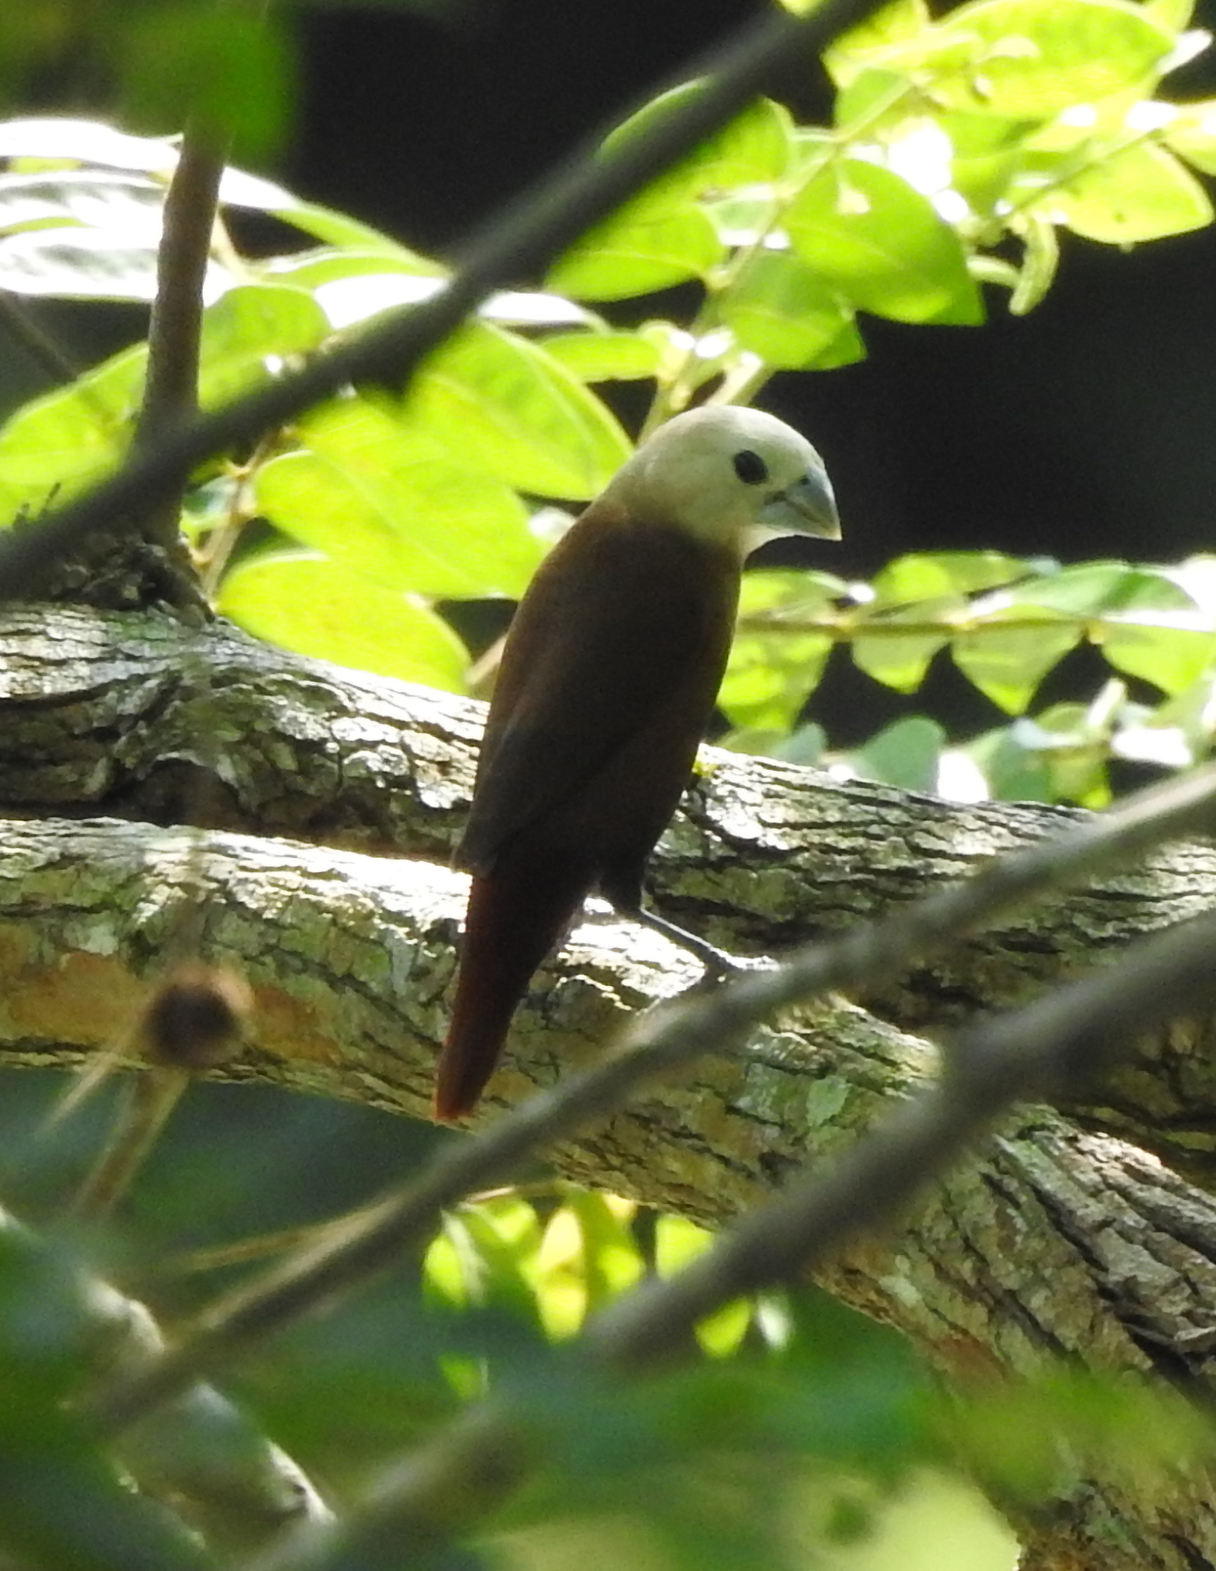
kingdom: Animalia
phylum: Chordata
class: Aves
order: Passeriformes
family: Estrildidae
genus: Lonchura
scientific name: Lonchura maja
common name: White-headed munia
